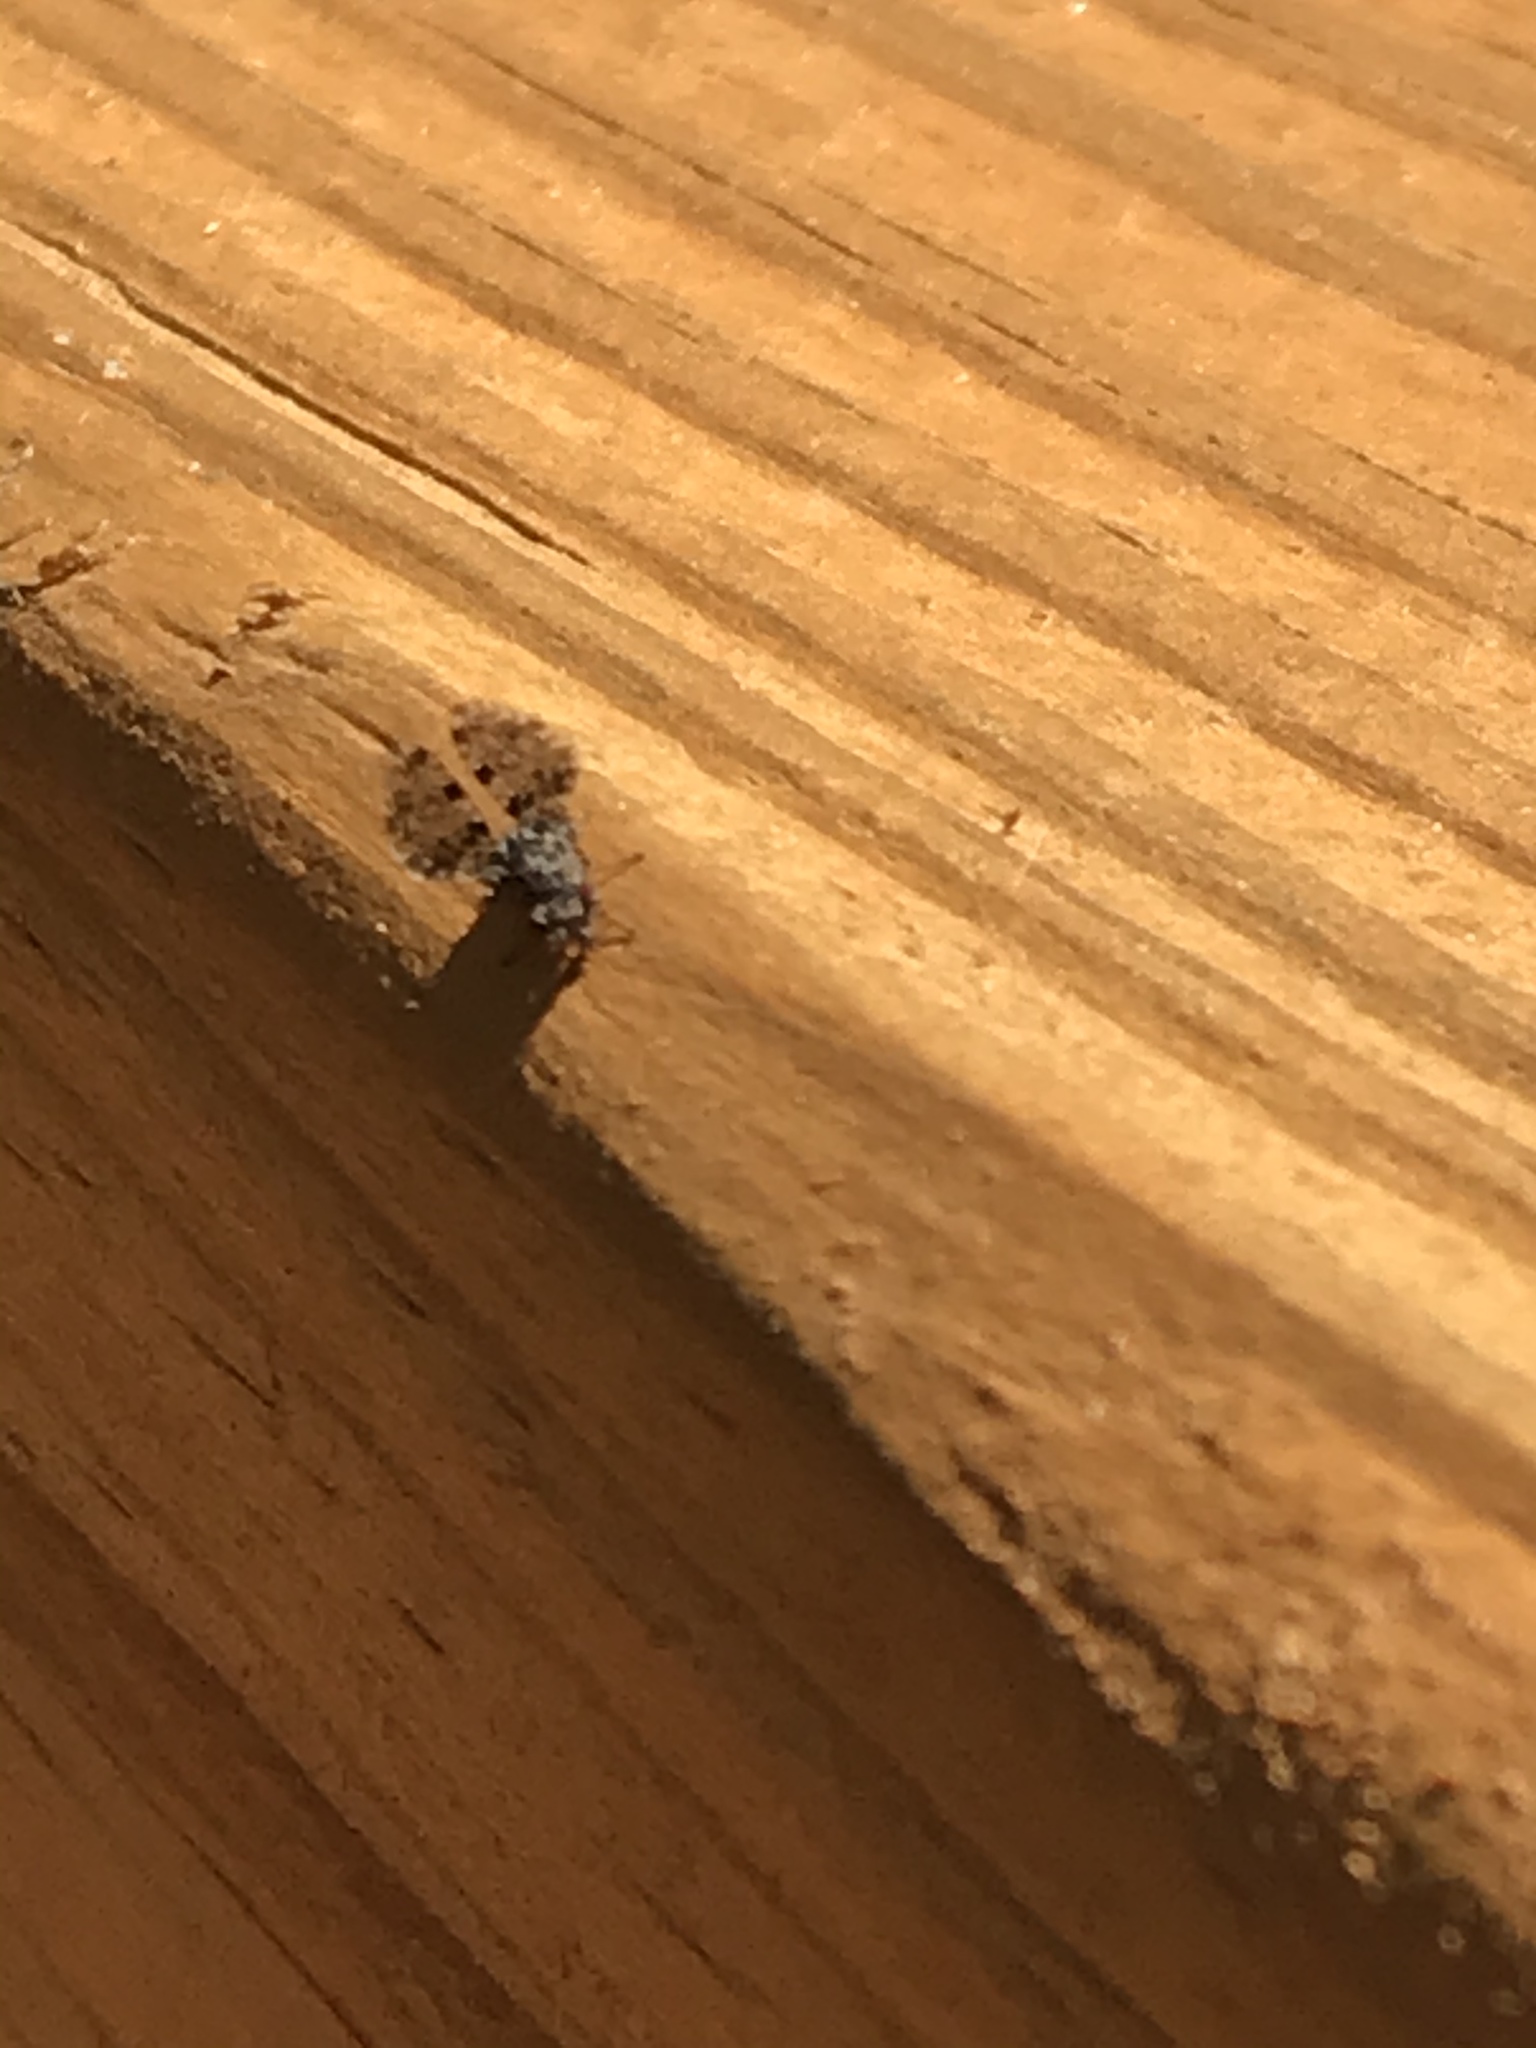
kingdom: Animalia
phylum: Arthropoda
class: Insecta
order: Diptera
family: Ulidiidae
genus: Callopistromyia
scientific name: Callopistromyia annulipes
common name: Peacock fly
